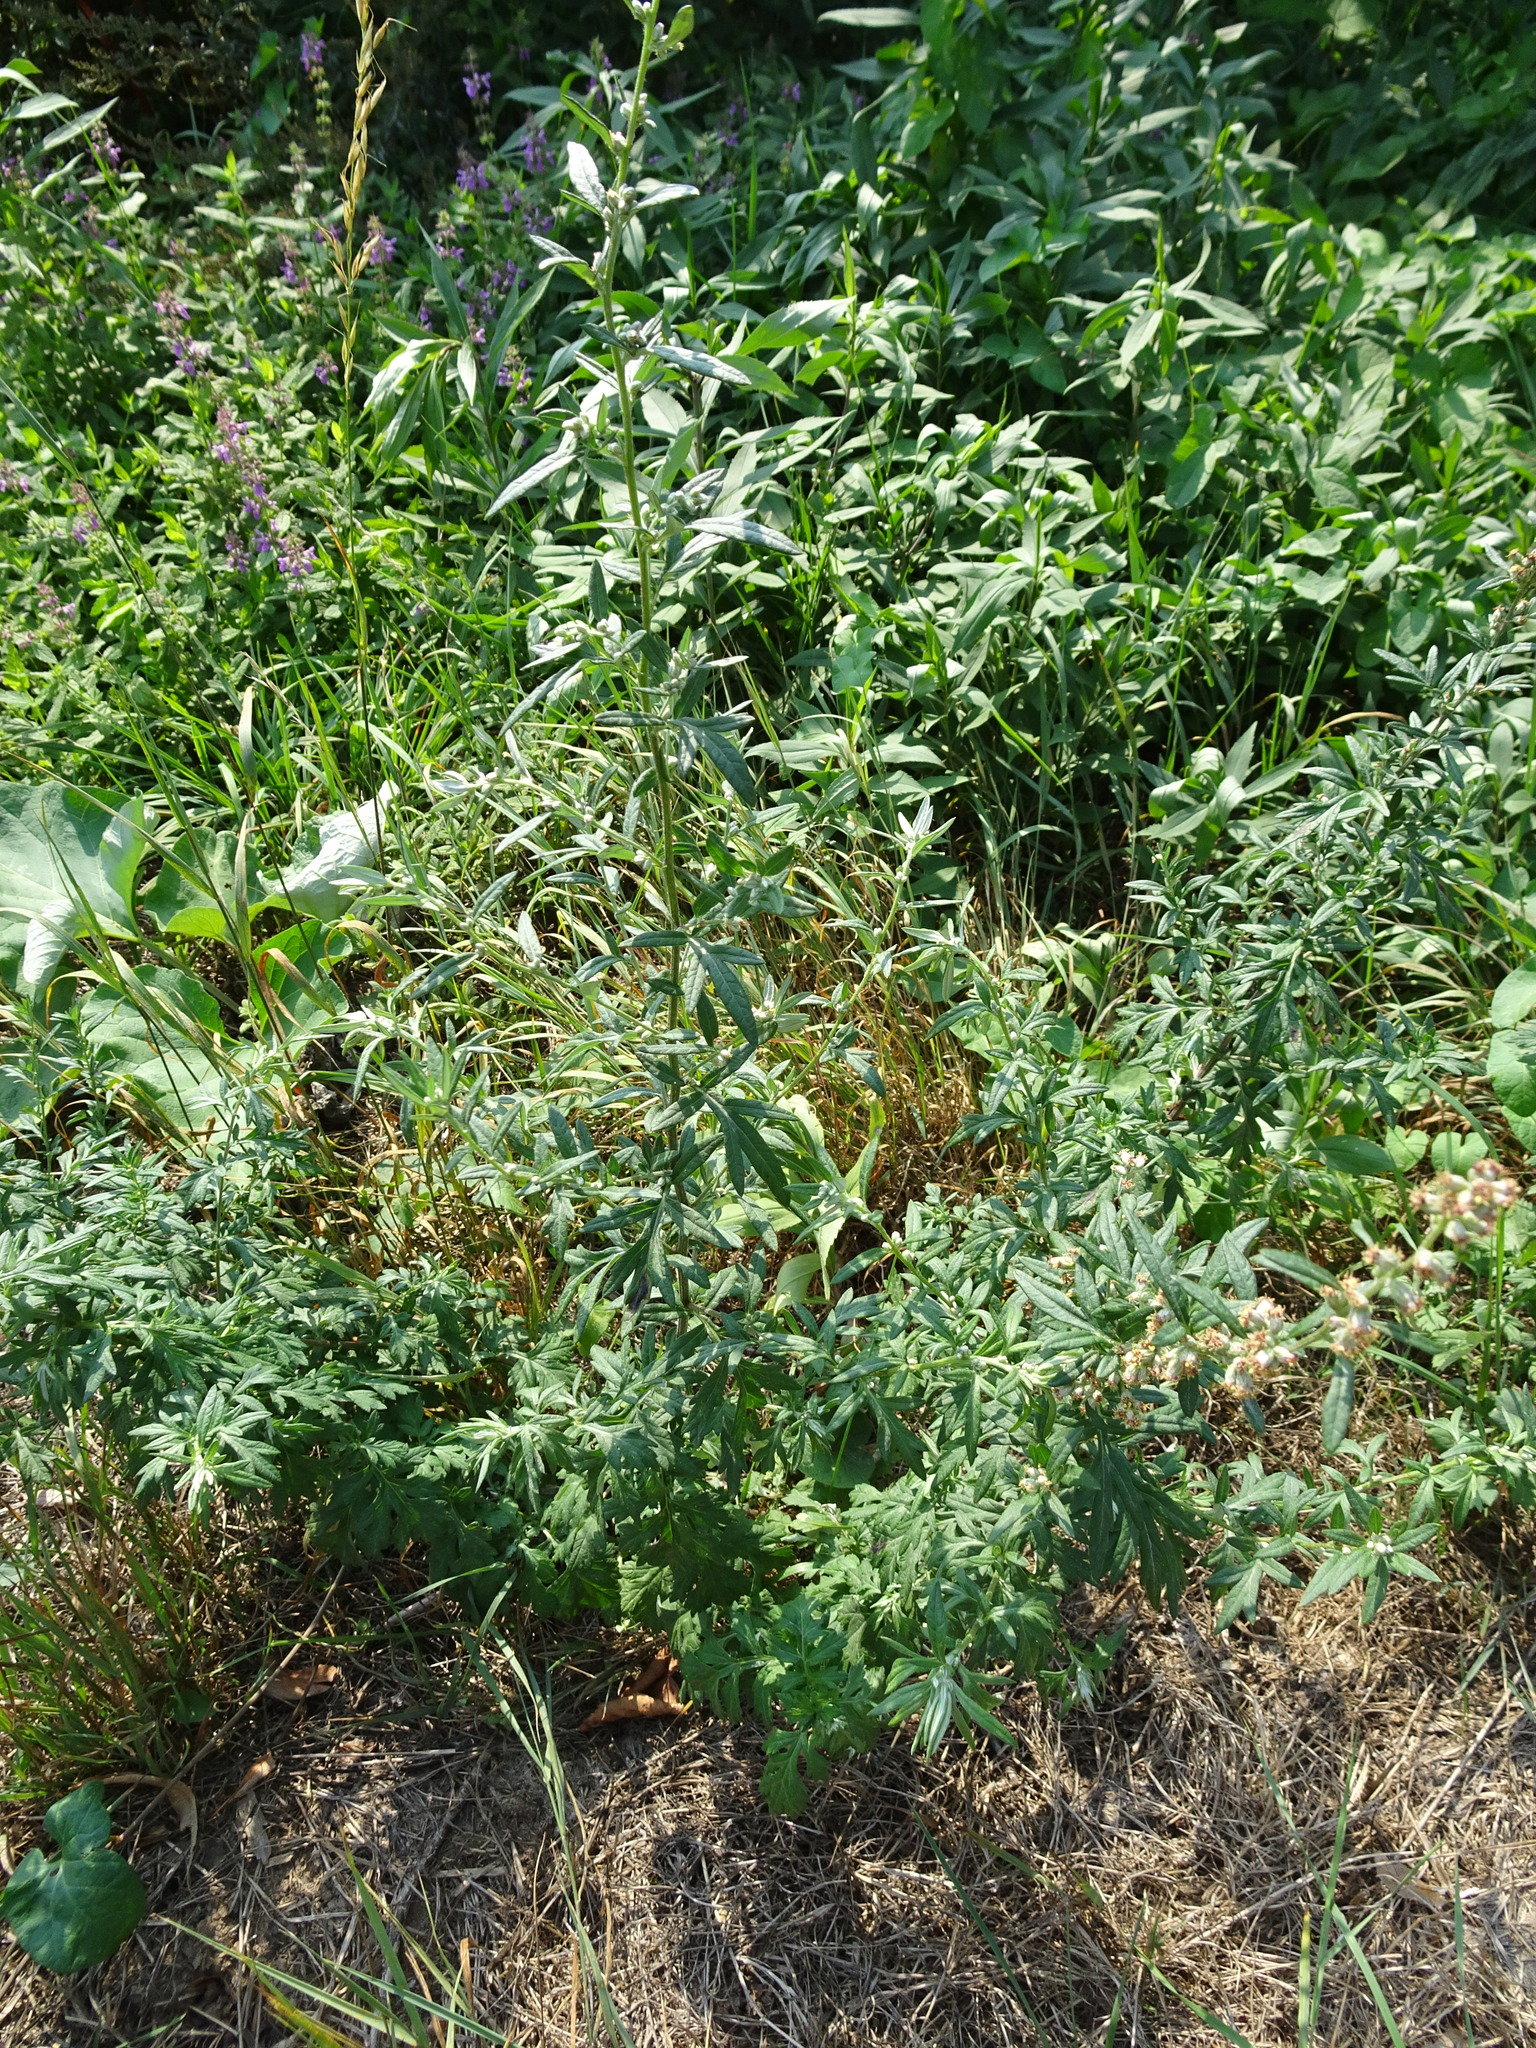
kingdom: Plantae
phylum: Tracheophyta
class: Magnoliopsida
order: Asterales
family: Asteraceae
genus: Artemisia
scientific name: Artemisia vulgaris
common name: Mugwort
